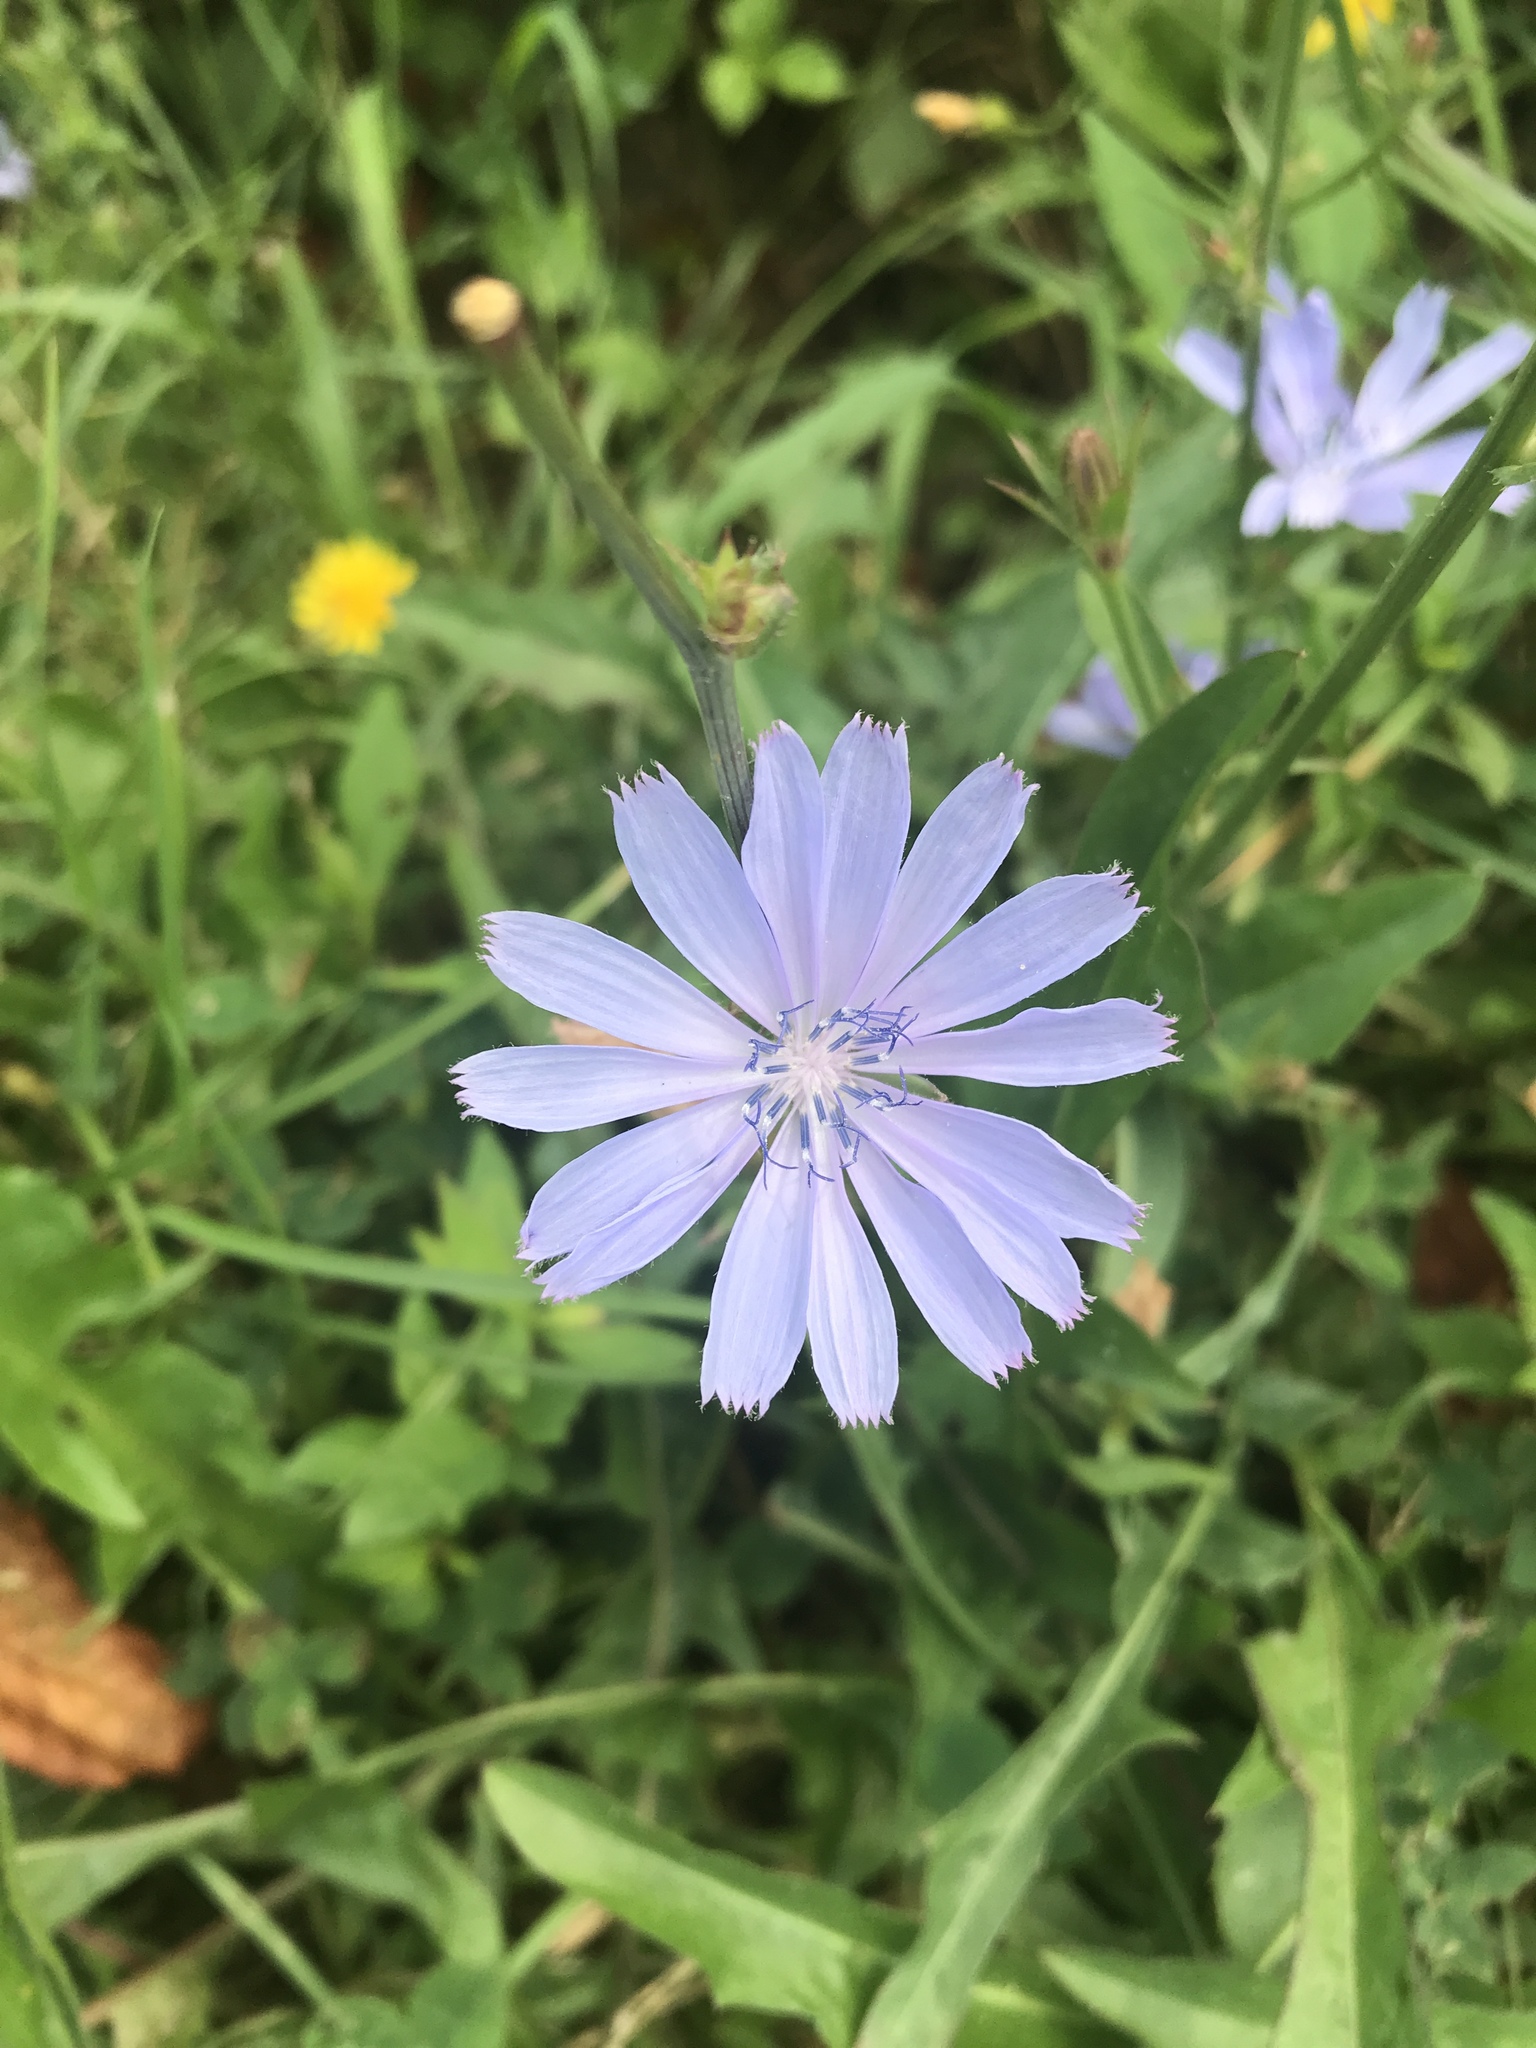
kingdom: Plantae
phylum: Tracheophyta
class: Magnoliopsida
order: Asterales
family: Asteraceae
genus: Cichorium
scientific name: Cichorium intybus
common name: Chicory
